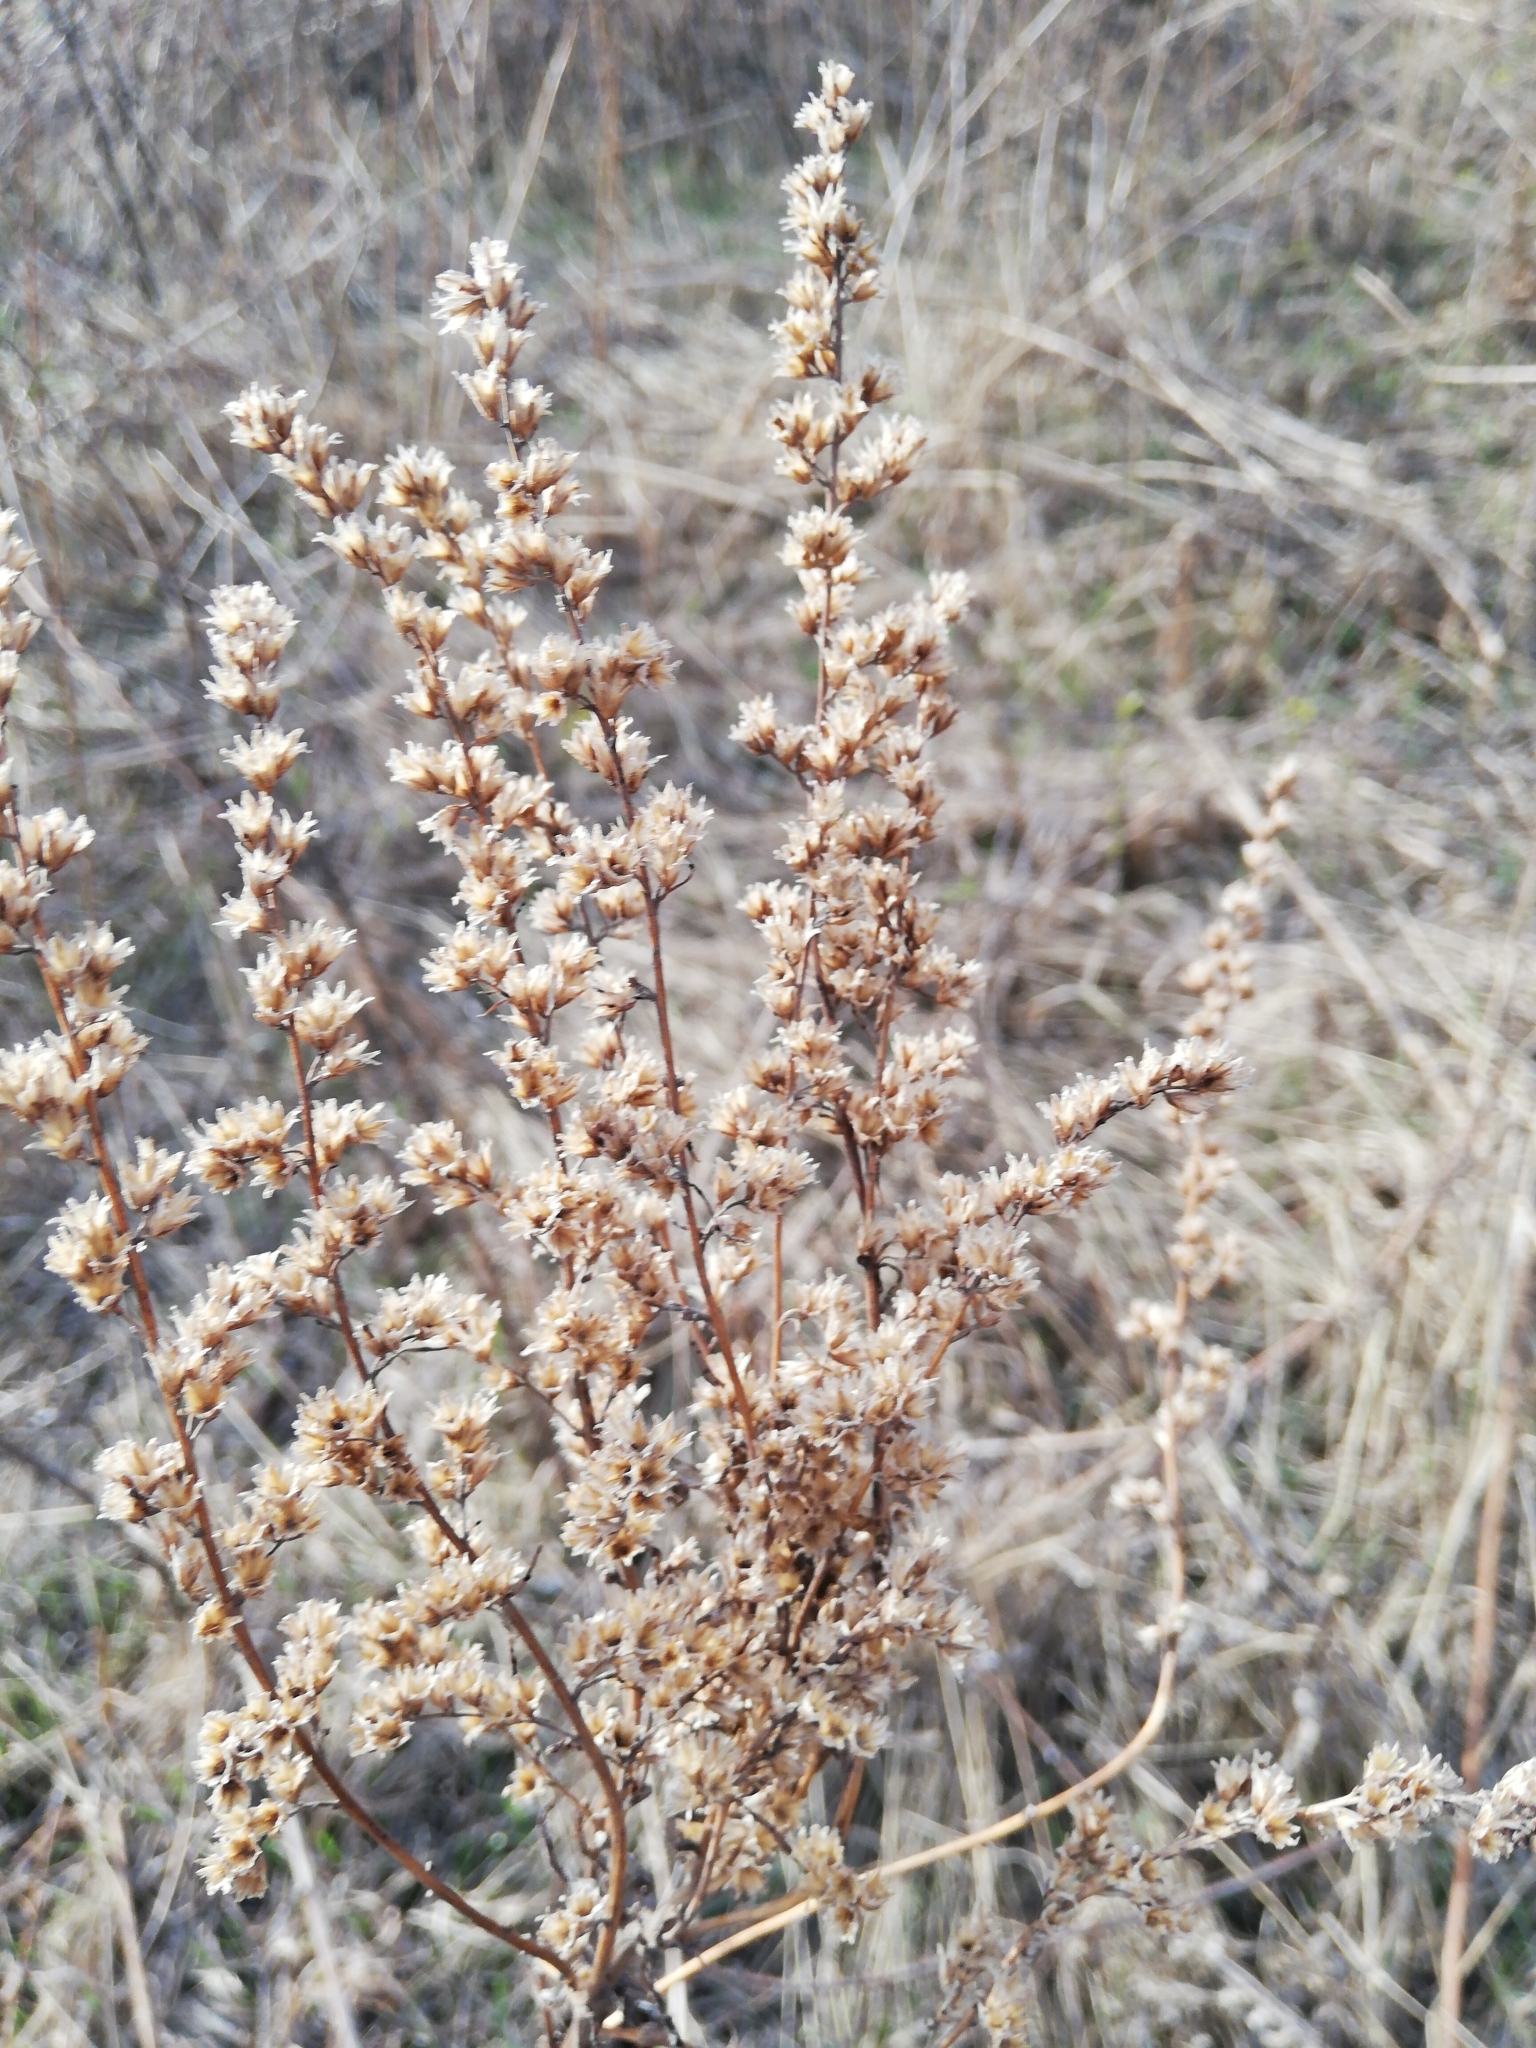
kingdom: Plantae
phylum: Tracheophyta
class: Magnoliopsida
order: Asterales
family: Asteraceae
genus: Artemisia
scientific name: Artemisia vulgaris
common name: Mugwort
